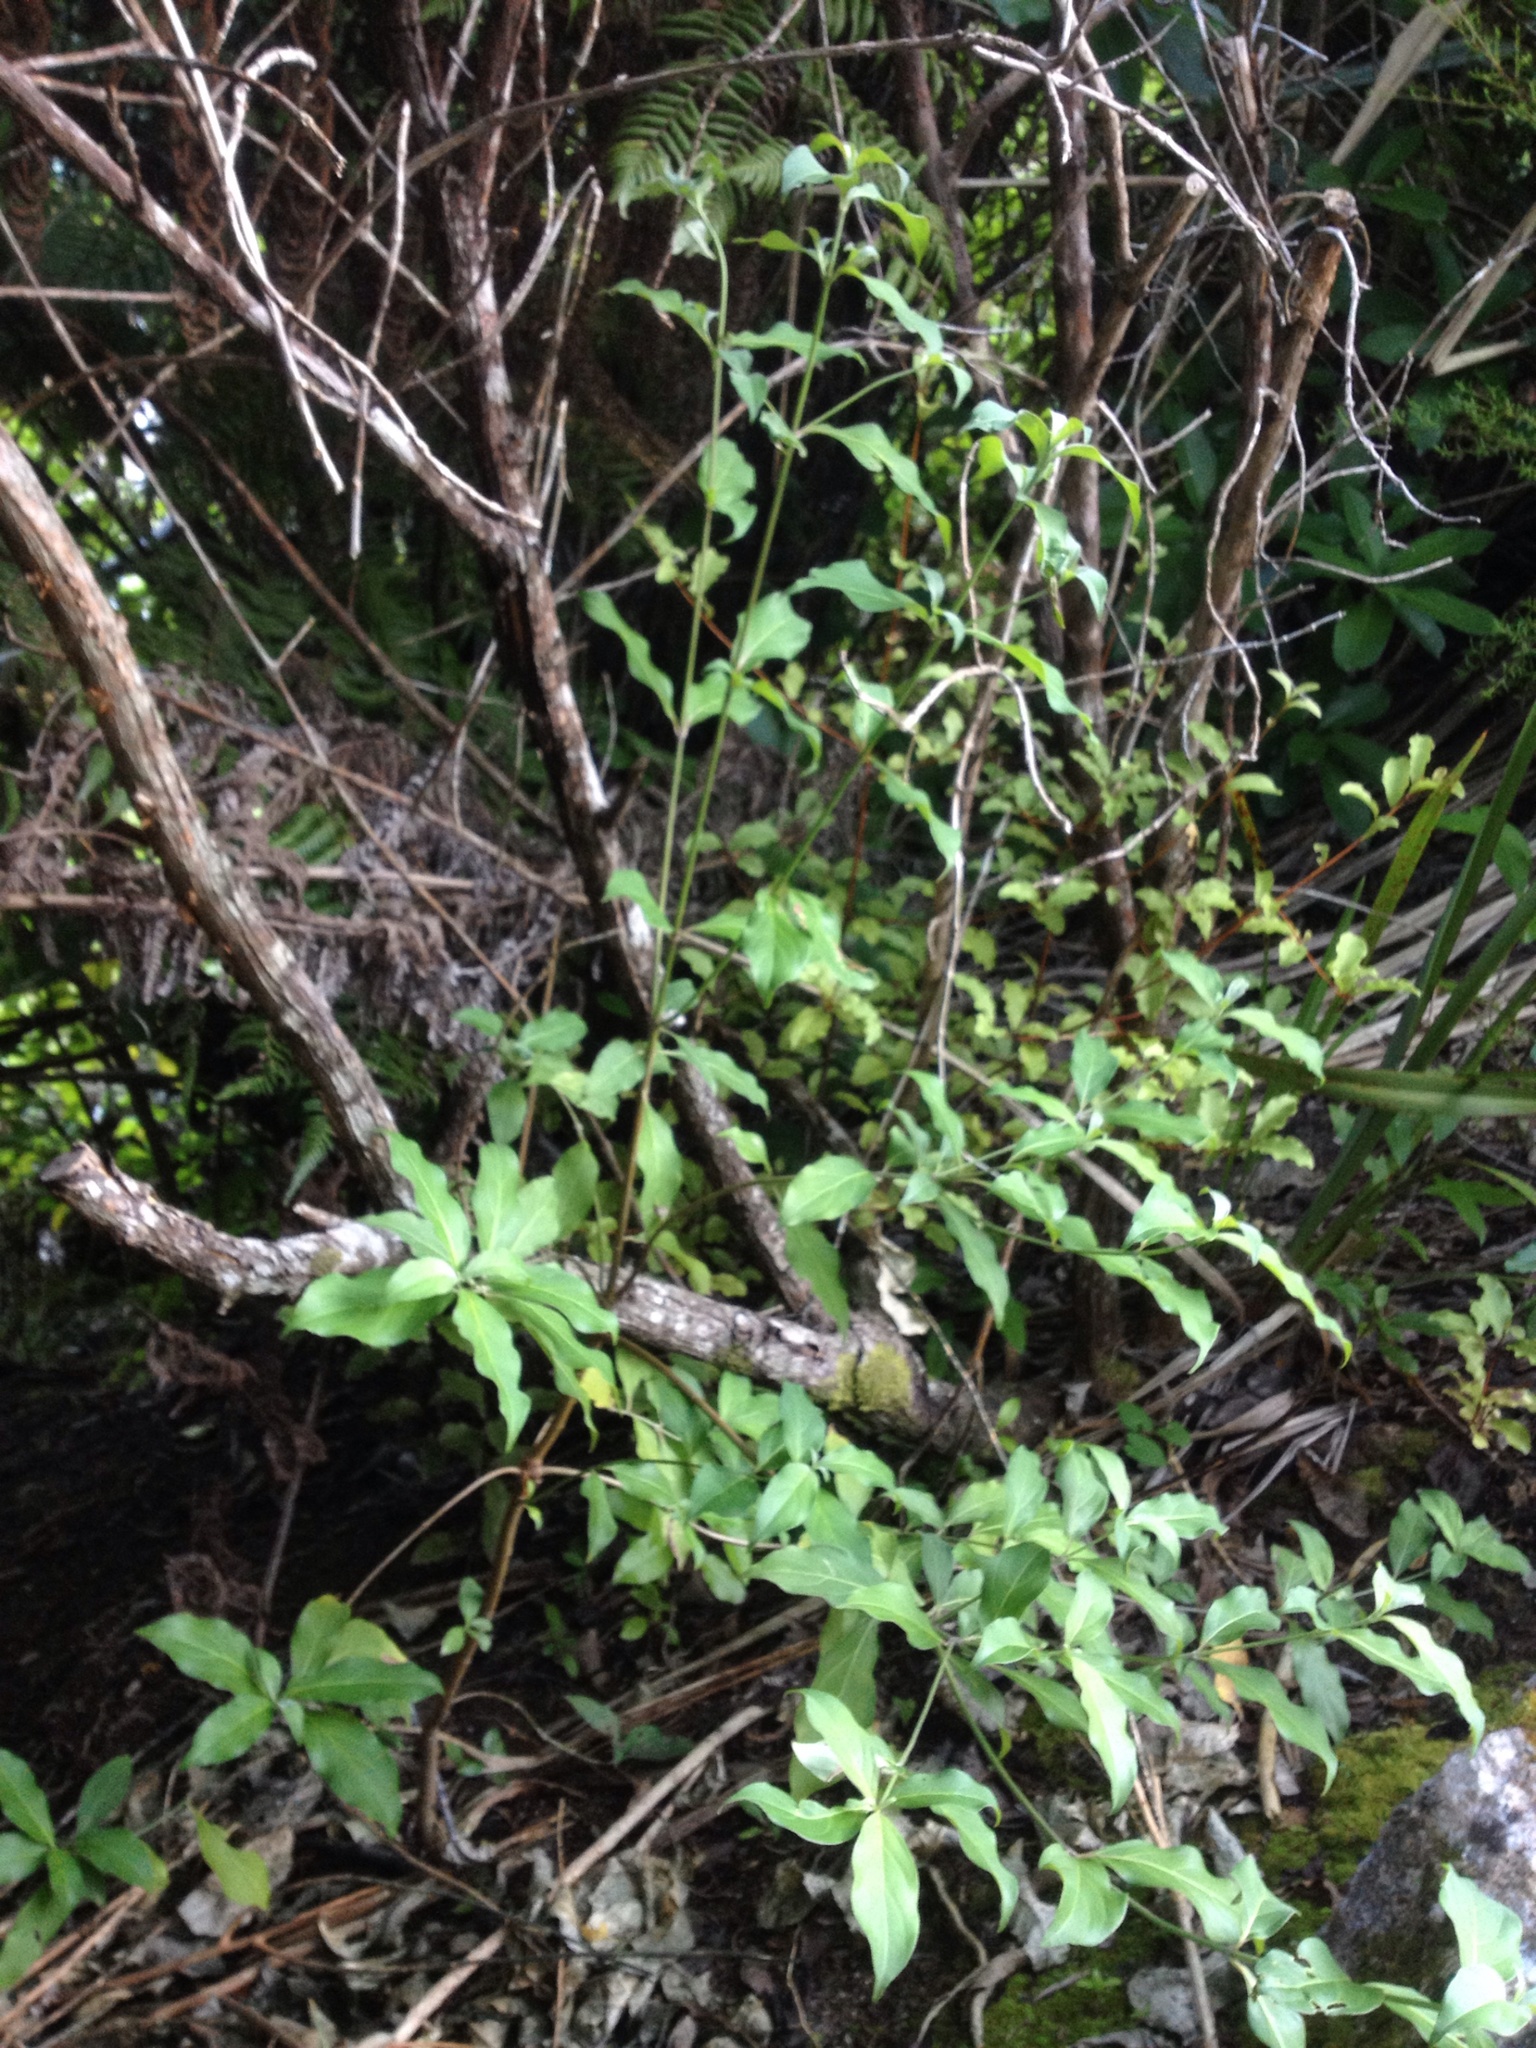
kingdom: Plantae
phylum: Tracheophyta
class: Magnoliopsida
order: Cornales
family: Cornaceae
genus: Cornus
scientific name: Cornus capitata
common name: Bentham's cornel
